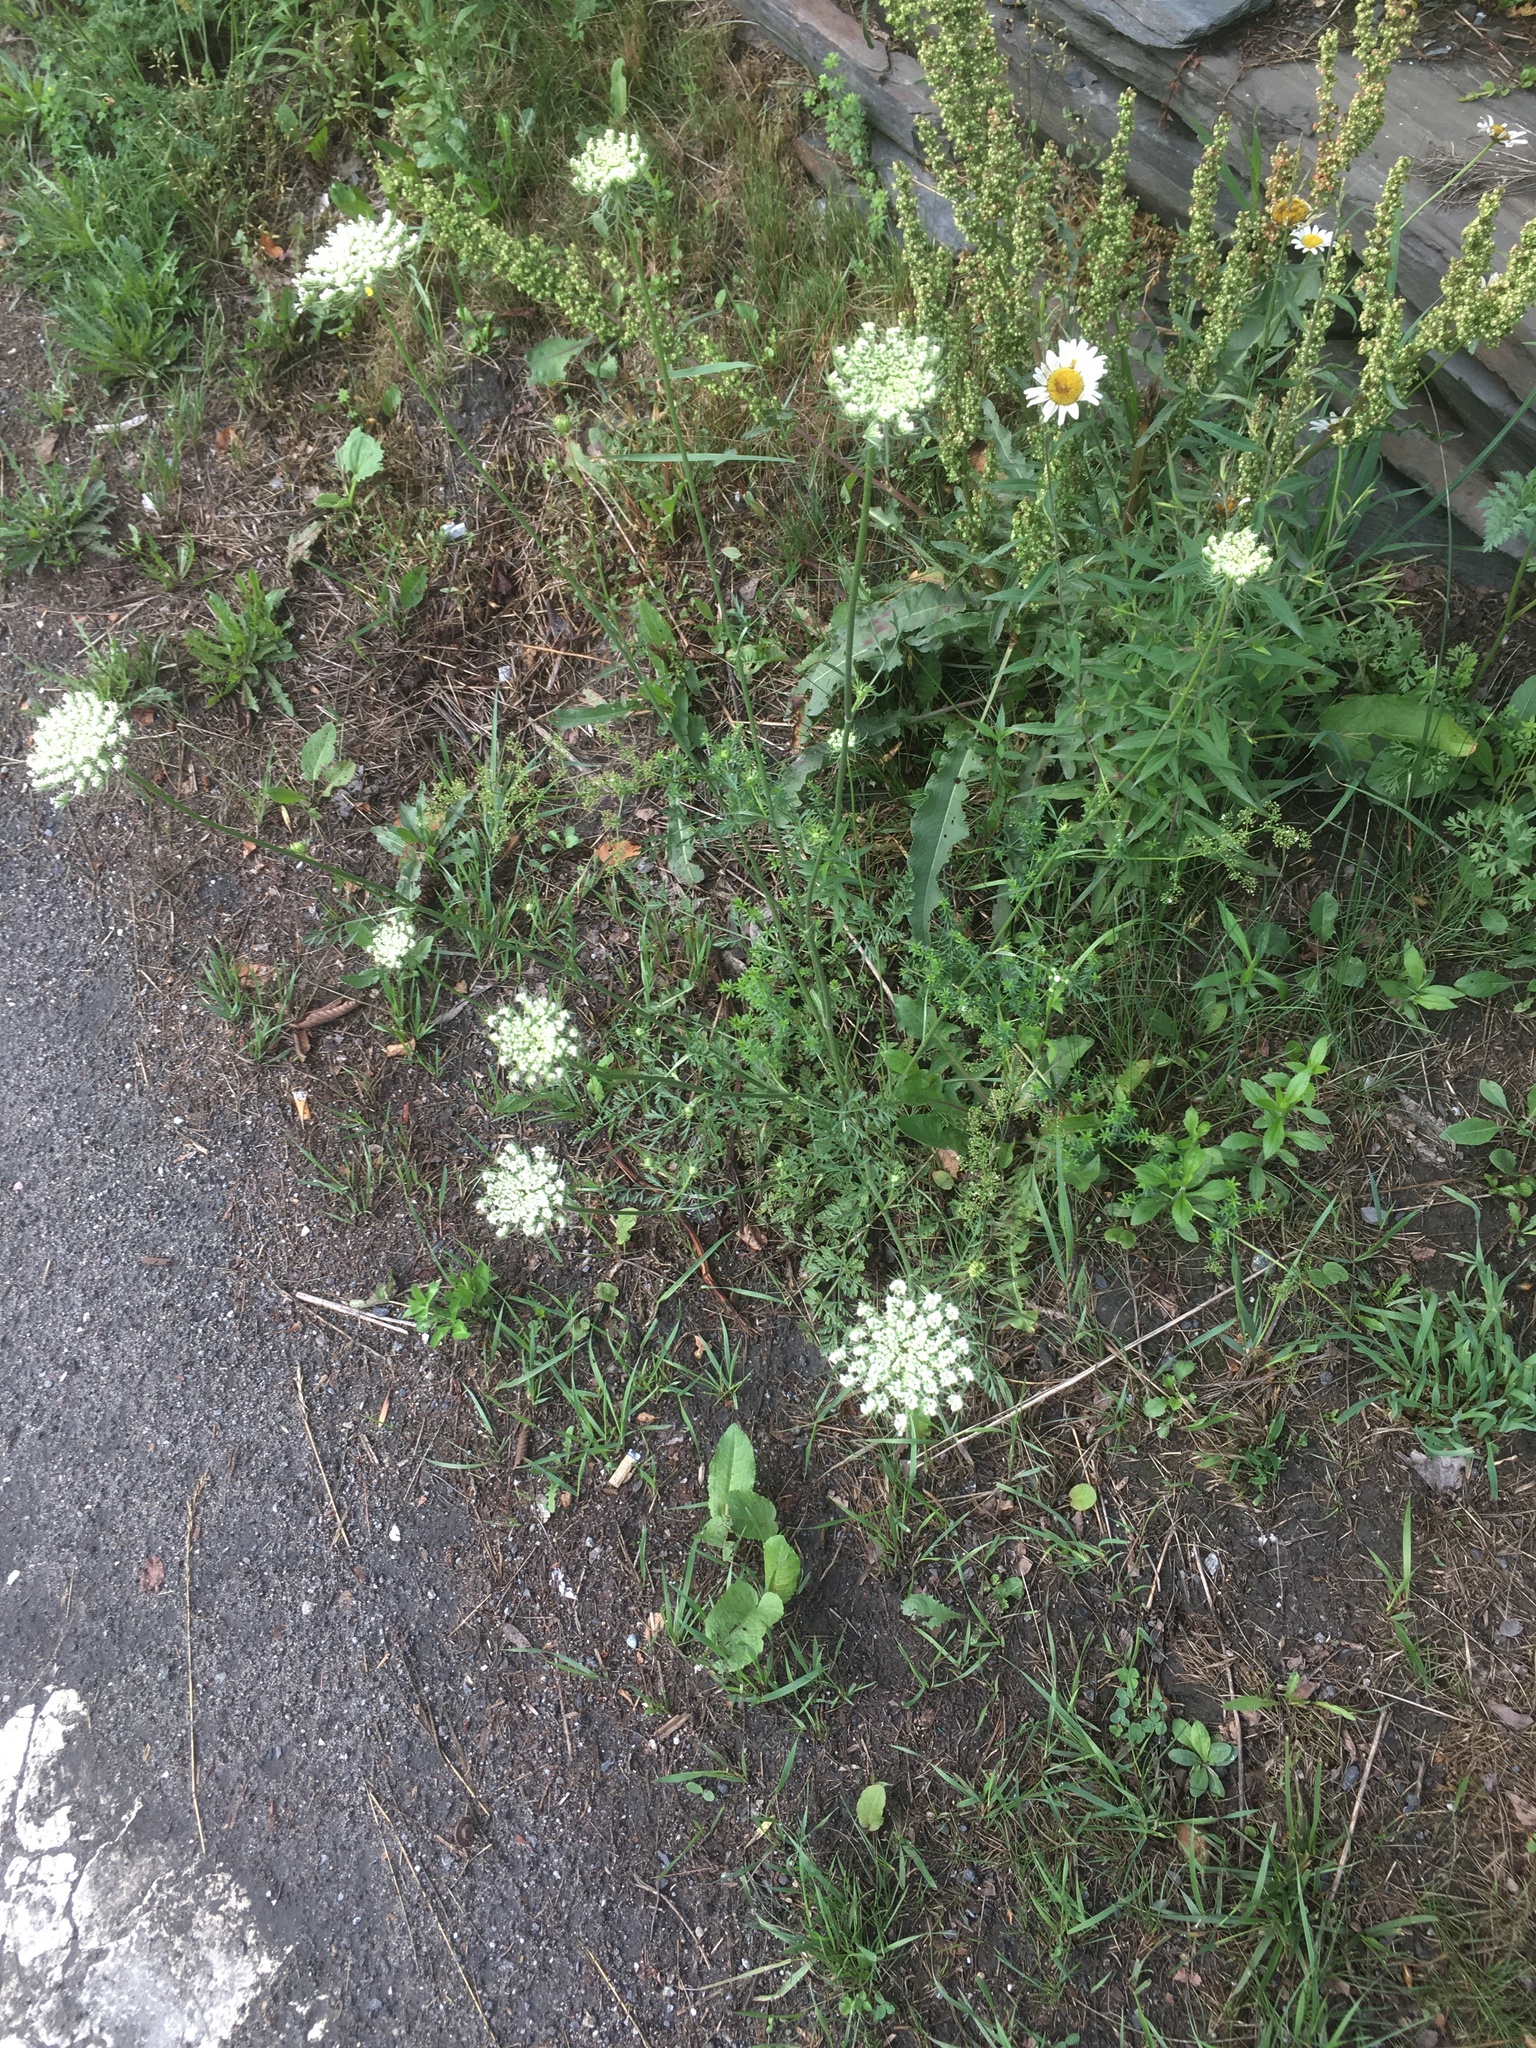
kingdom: Plantae
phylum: Tracheophyta
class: Magnoliopsida
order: Apiales
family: Apiaceae
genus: Daucus
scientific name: Daucus carota
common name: Wild carrot
